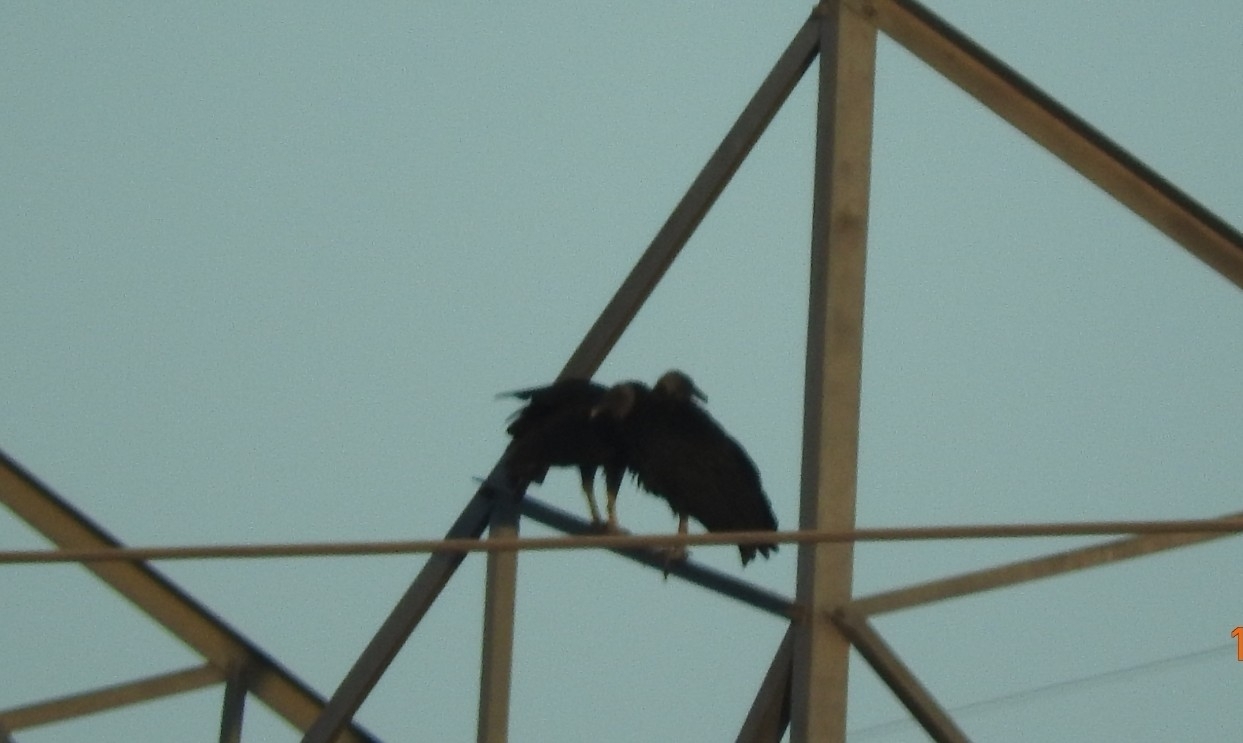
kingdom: Animalia
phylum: Chordata
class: Aves
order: Accipitriformes
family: Cathartidae
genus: Coragyps
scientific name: Coragyps atratus
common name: Black vulture
